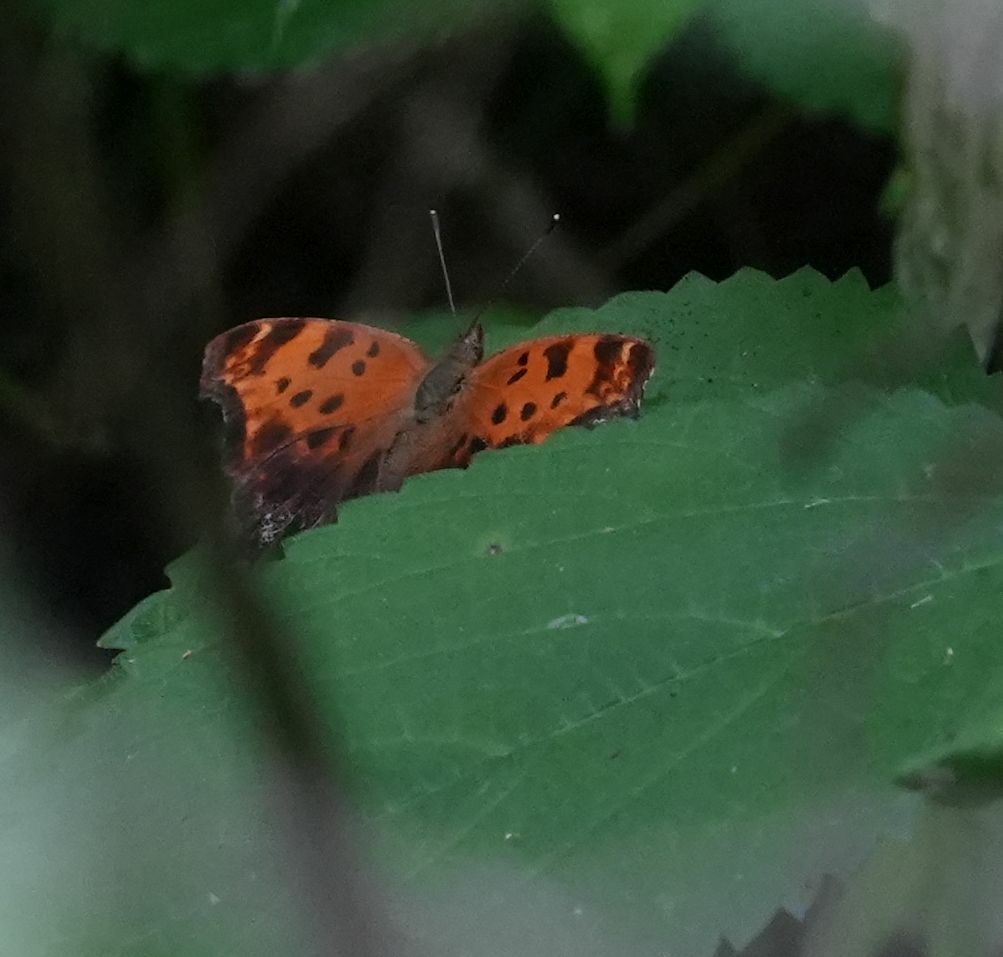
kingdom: Animalia
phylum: Arthropoda
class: Insecta
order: Lepidoptera
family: Nymphalidae
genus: Polygonia
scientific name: Polygonia comma
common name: Eastern comma
